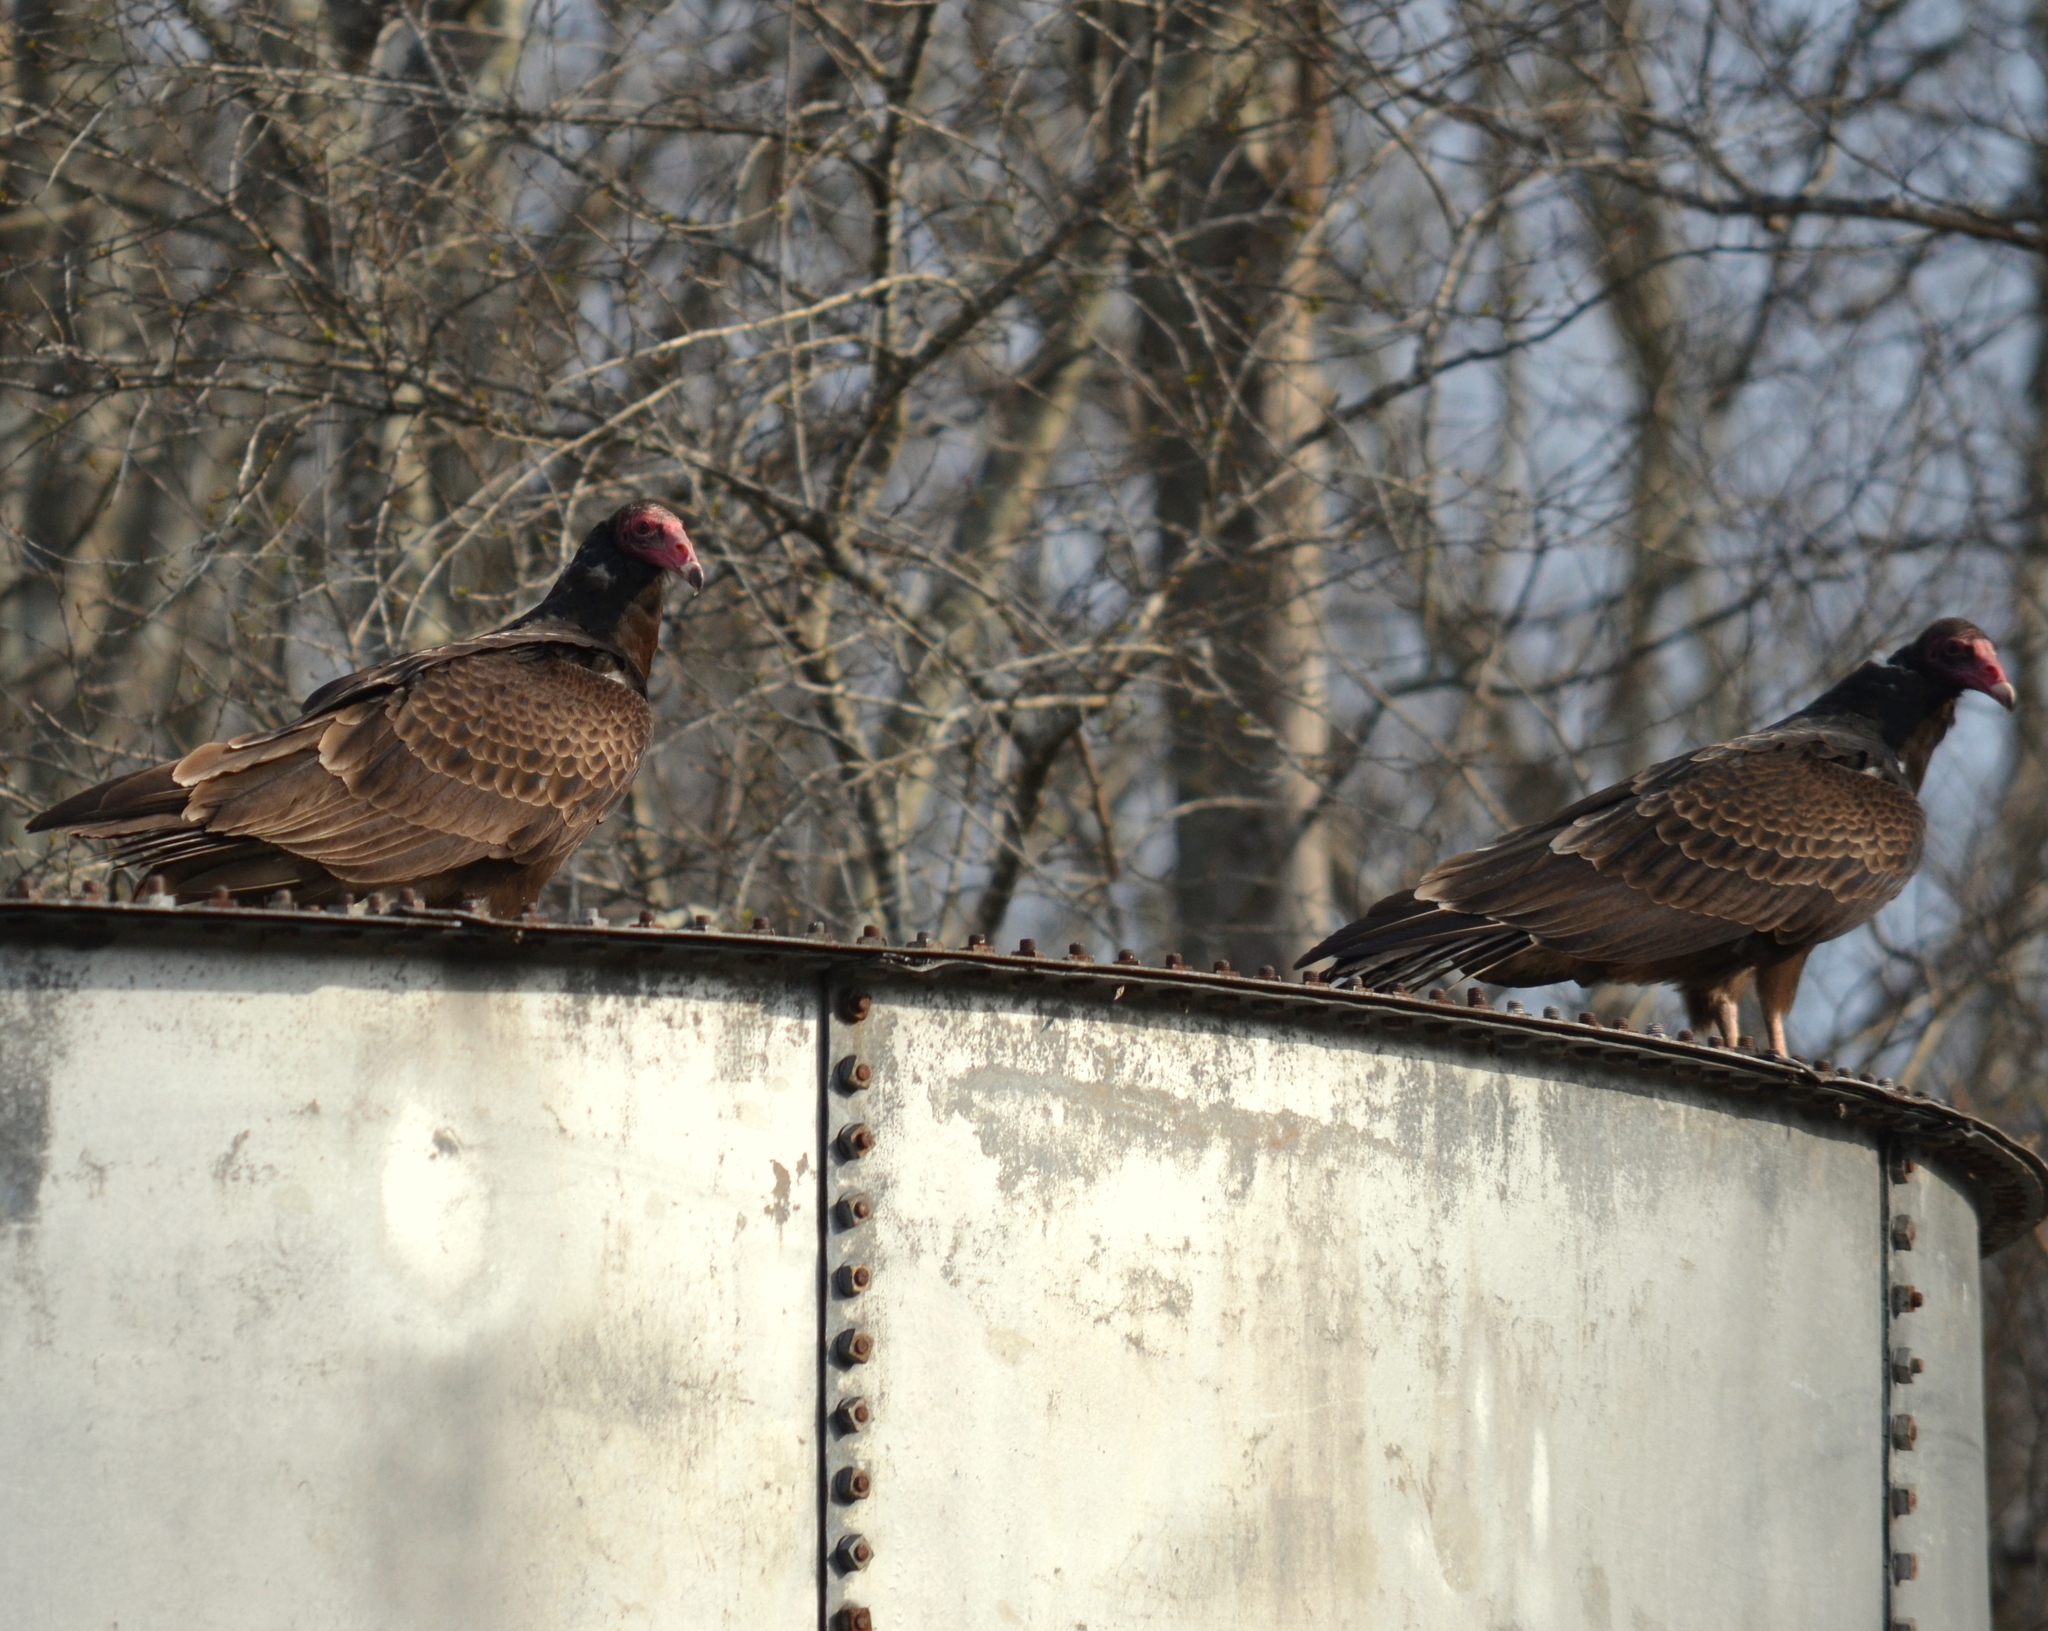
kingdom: Animalia
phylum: Chordata
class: Aves
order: Accipitriformes
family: Cathartidae
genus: Cathartes
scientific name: Cathartes aura
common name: Turkey vulture
